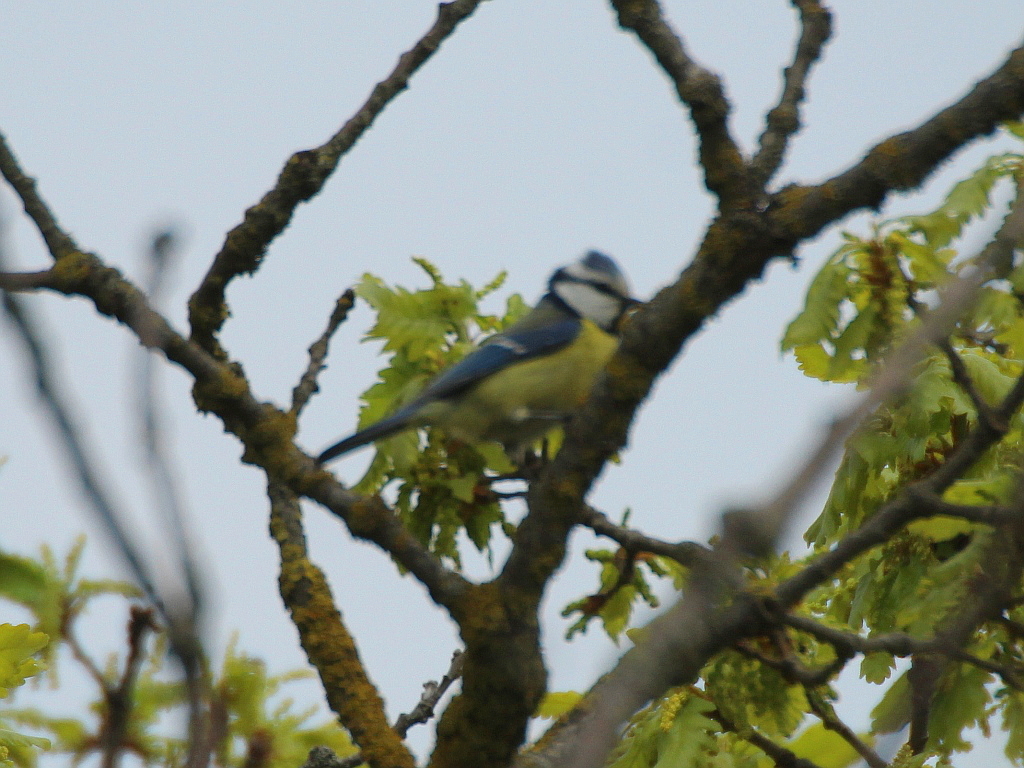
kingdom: Animalia
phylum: Chordata
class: Aves
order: Passeriformes
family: Paridae
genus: Cyanistes
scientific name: Cyanistes caeruleus
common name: Eurasian blue tit
